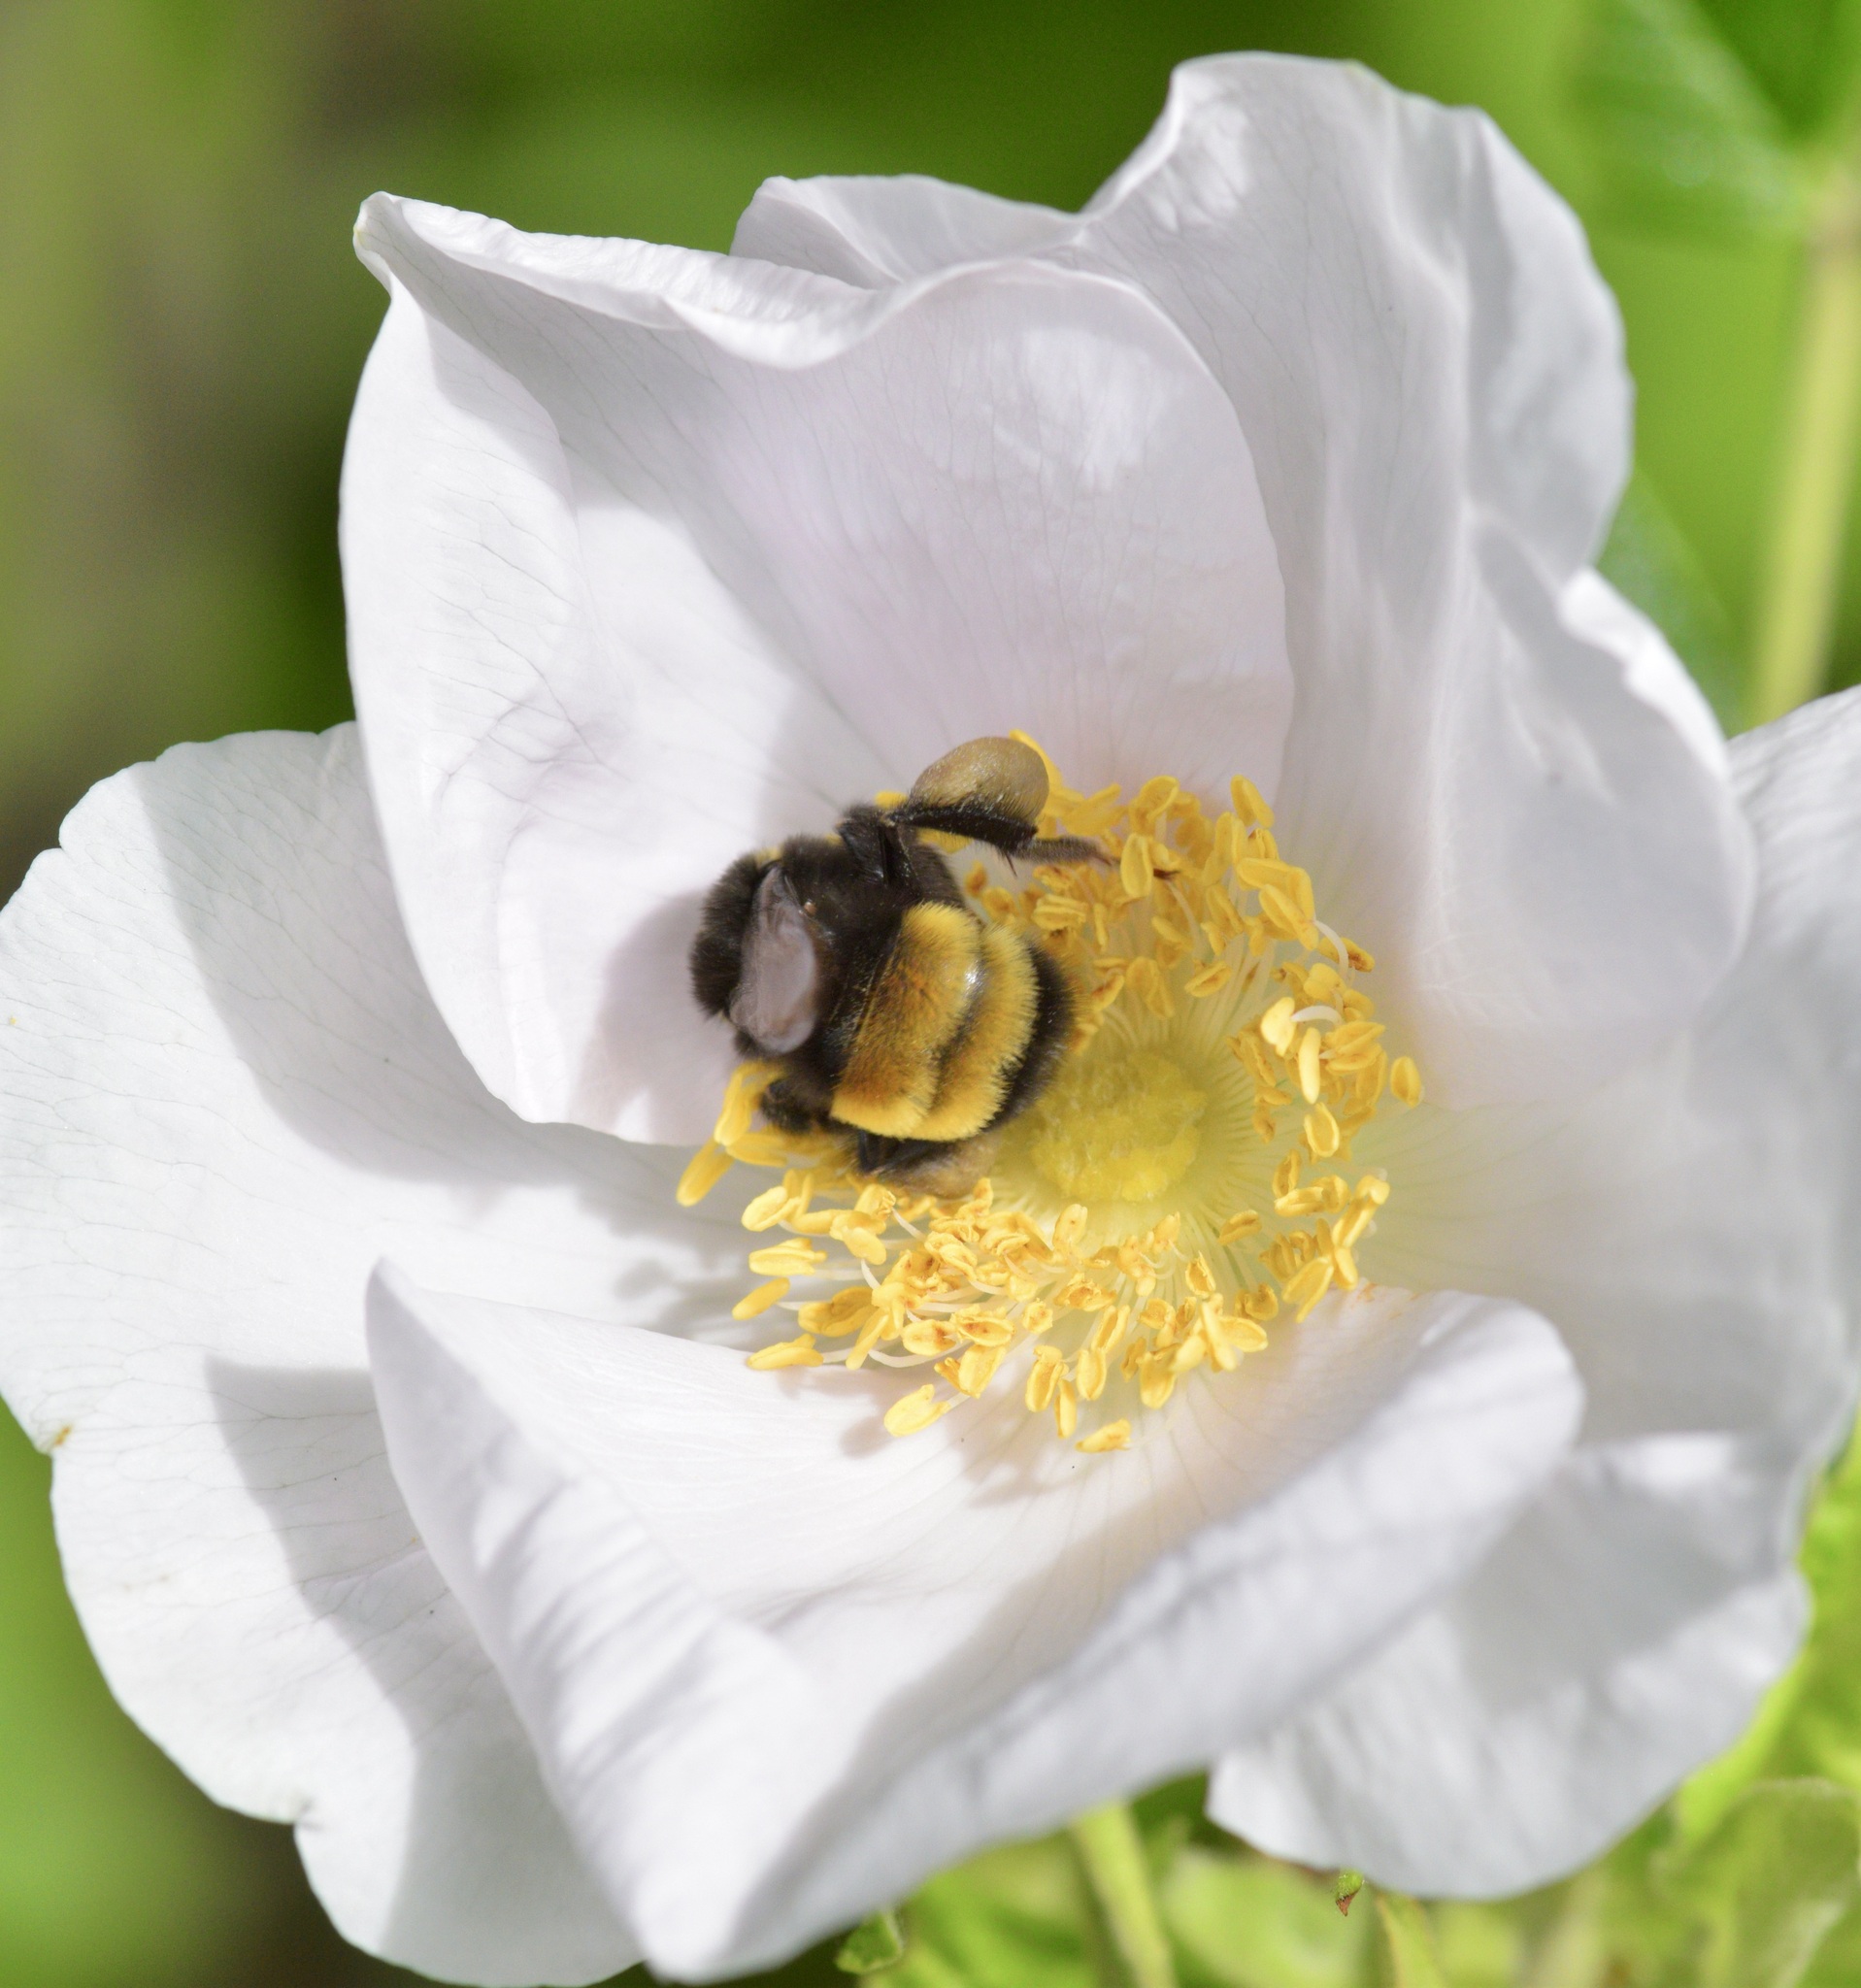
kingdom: Animalia
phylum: Arthropoda
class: Insecta
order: Hymenoptera
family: Apidae
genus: Bombus
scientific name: Bombus terricola
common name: Yellow-banded bumble bee
